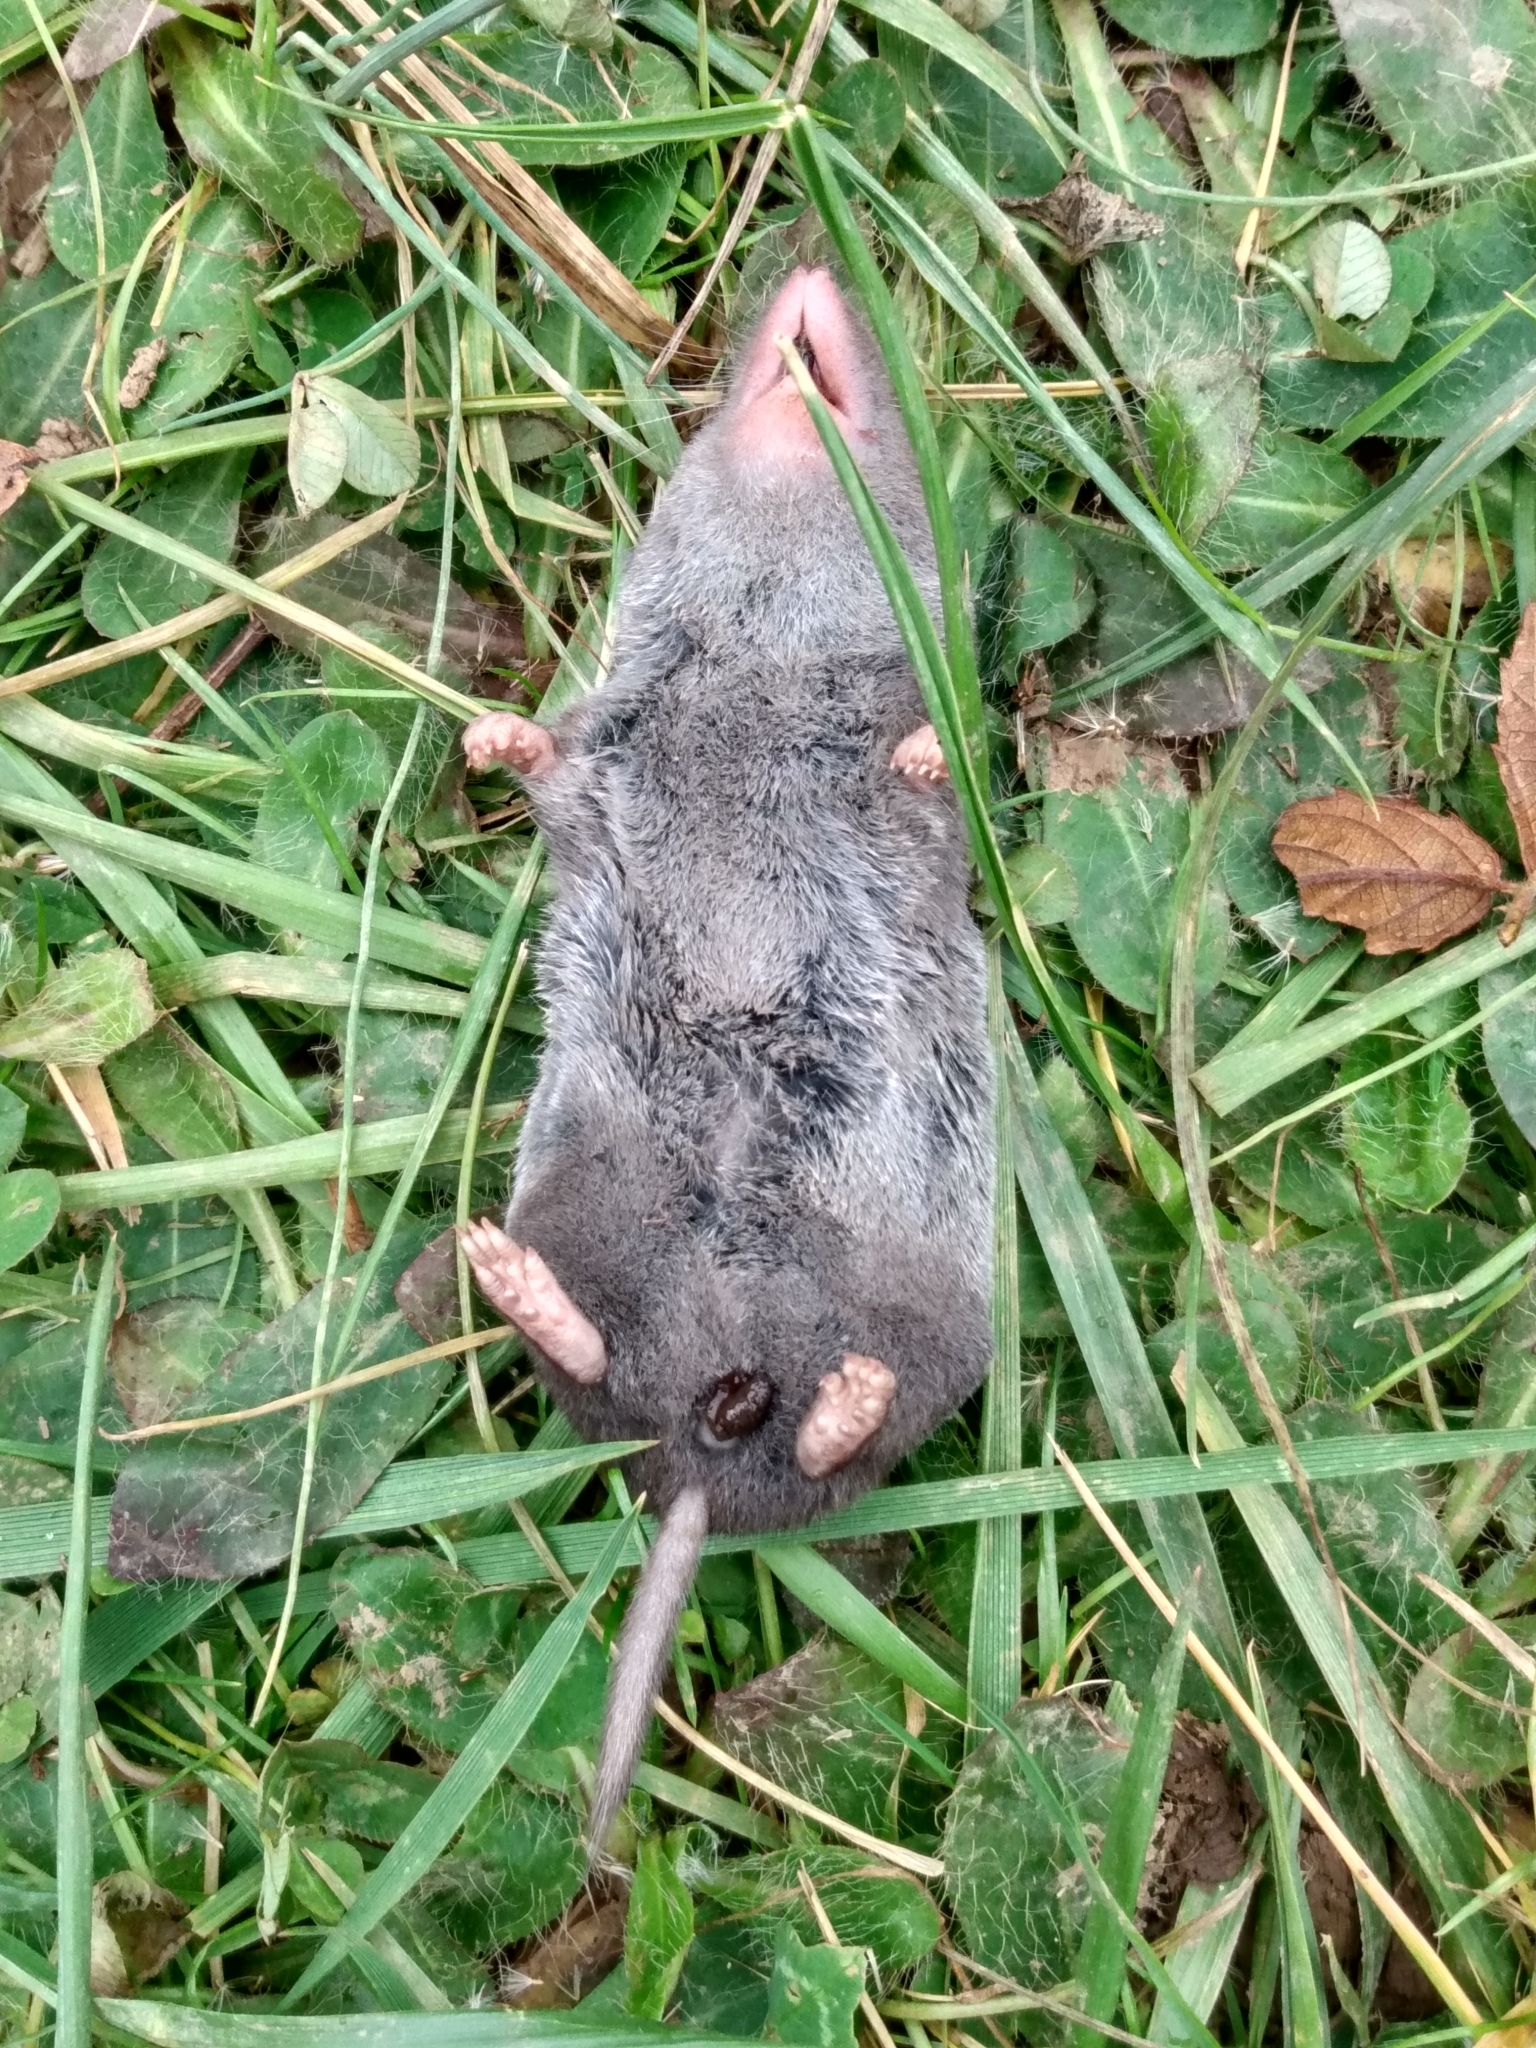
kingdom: Animalia
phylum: Chordata
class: Mammalia
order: Soricomorpha
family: Soricidae
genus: Blarina
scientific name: Blarina brevicauda
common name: Northern short-tailed shrew
